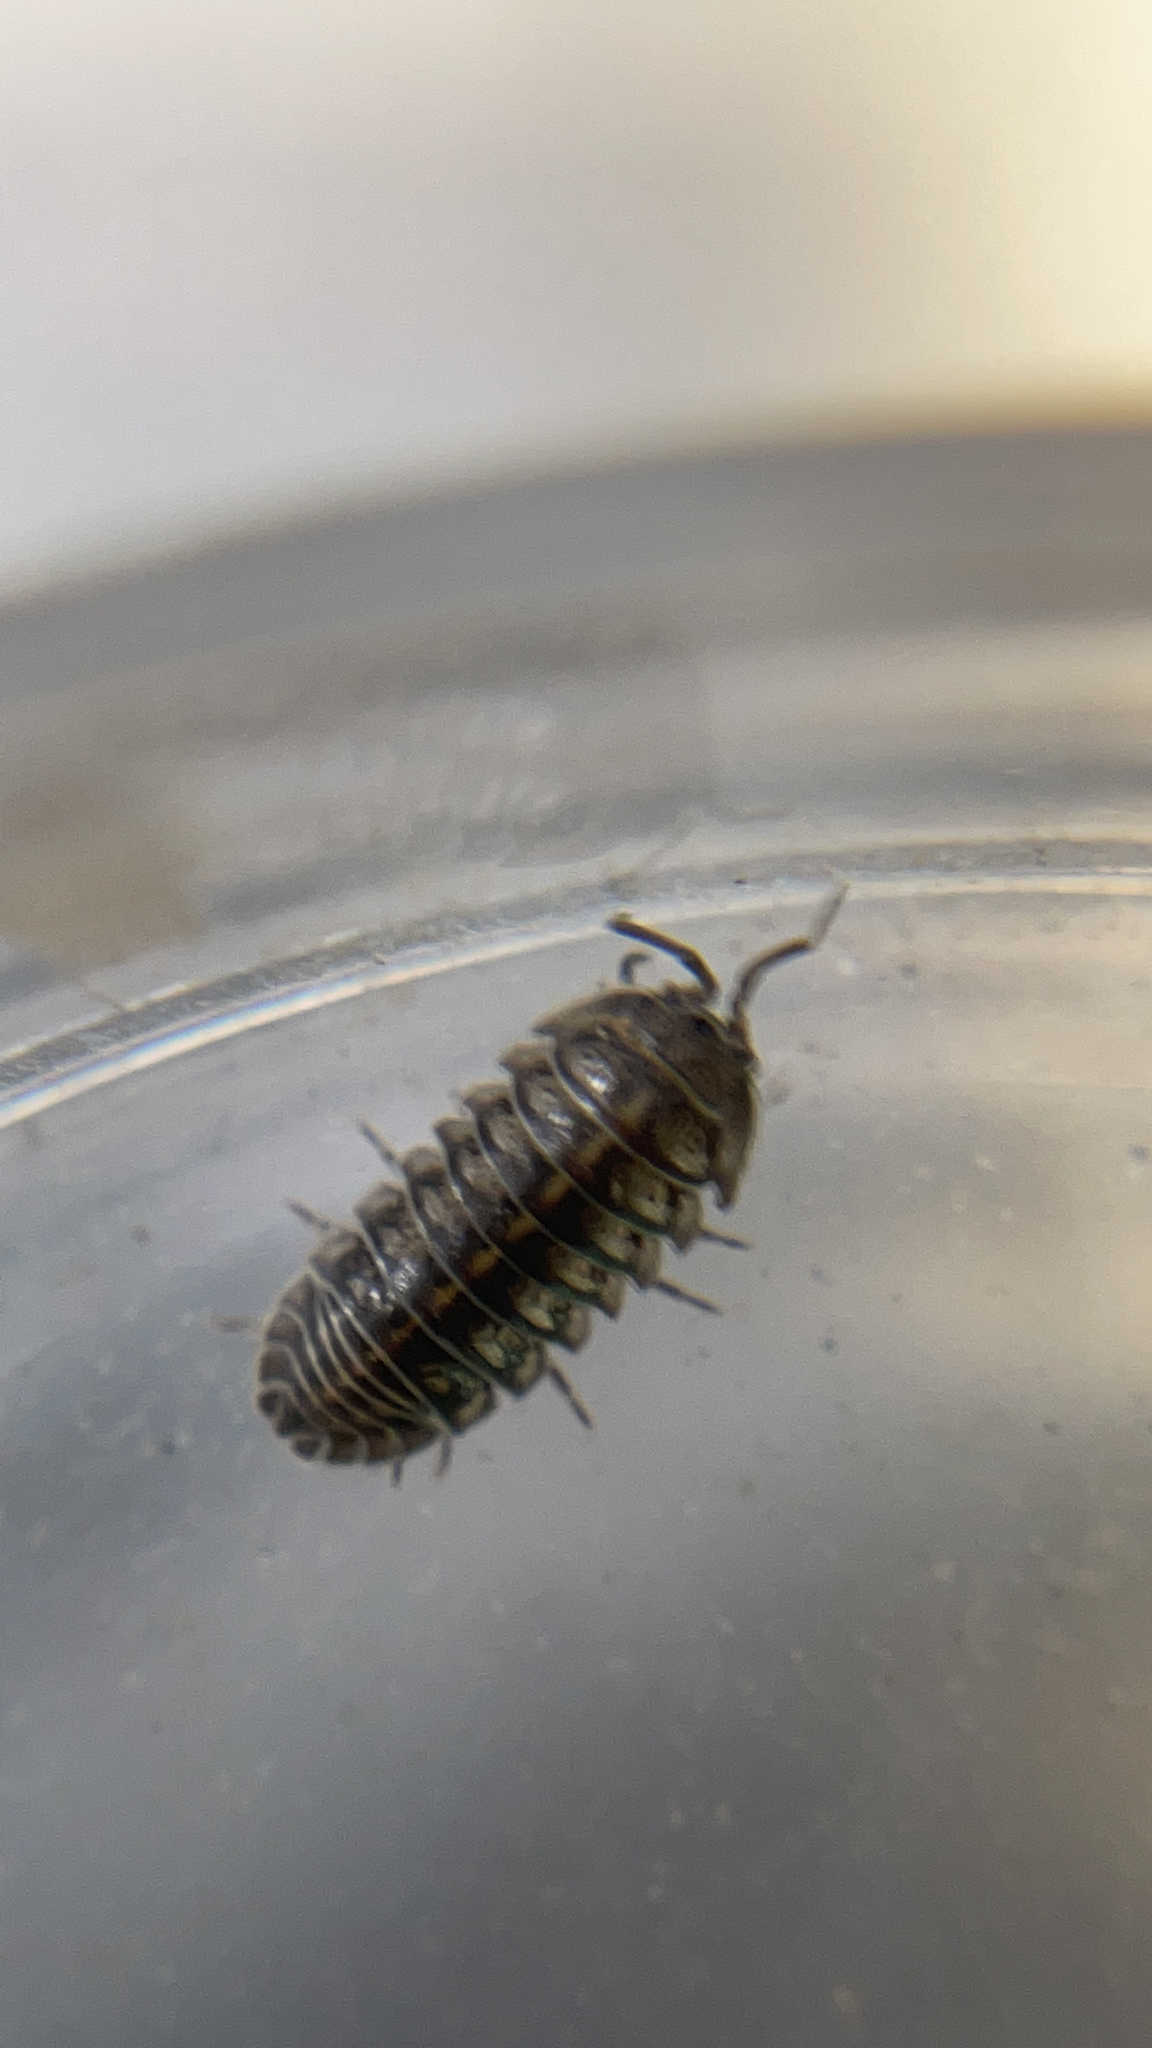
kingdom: Animalia
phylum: Arthropoda
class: Malacostraca
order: Isopoda
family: Armadillidiidae
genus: Armadillidium
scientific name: Armadillidium nasatum
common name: Isopod
